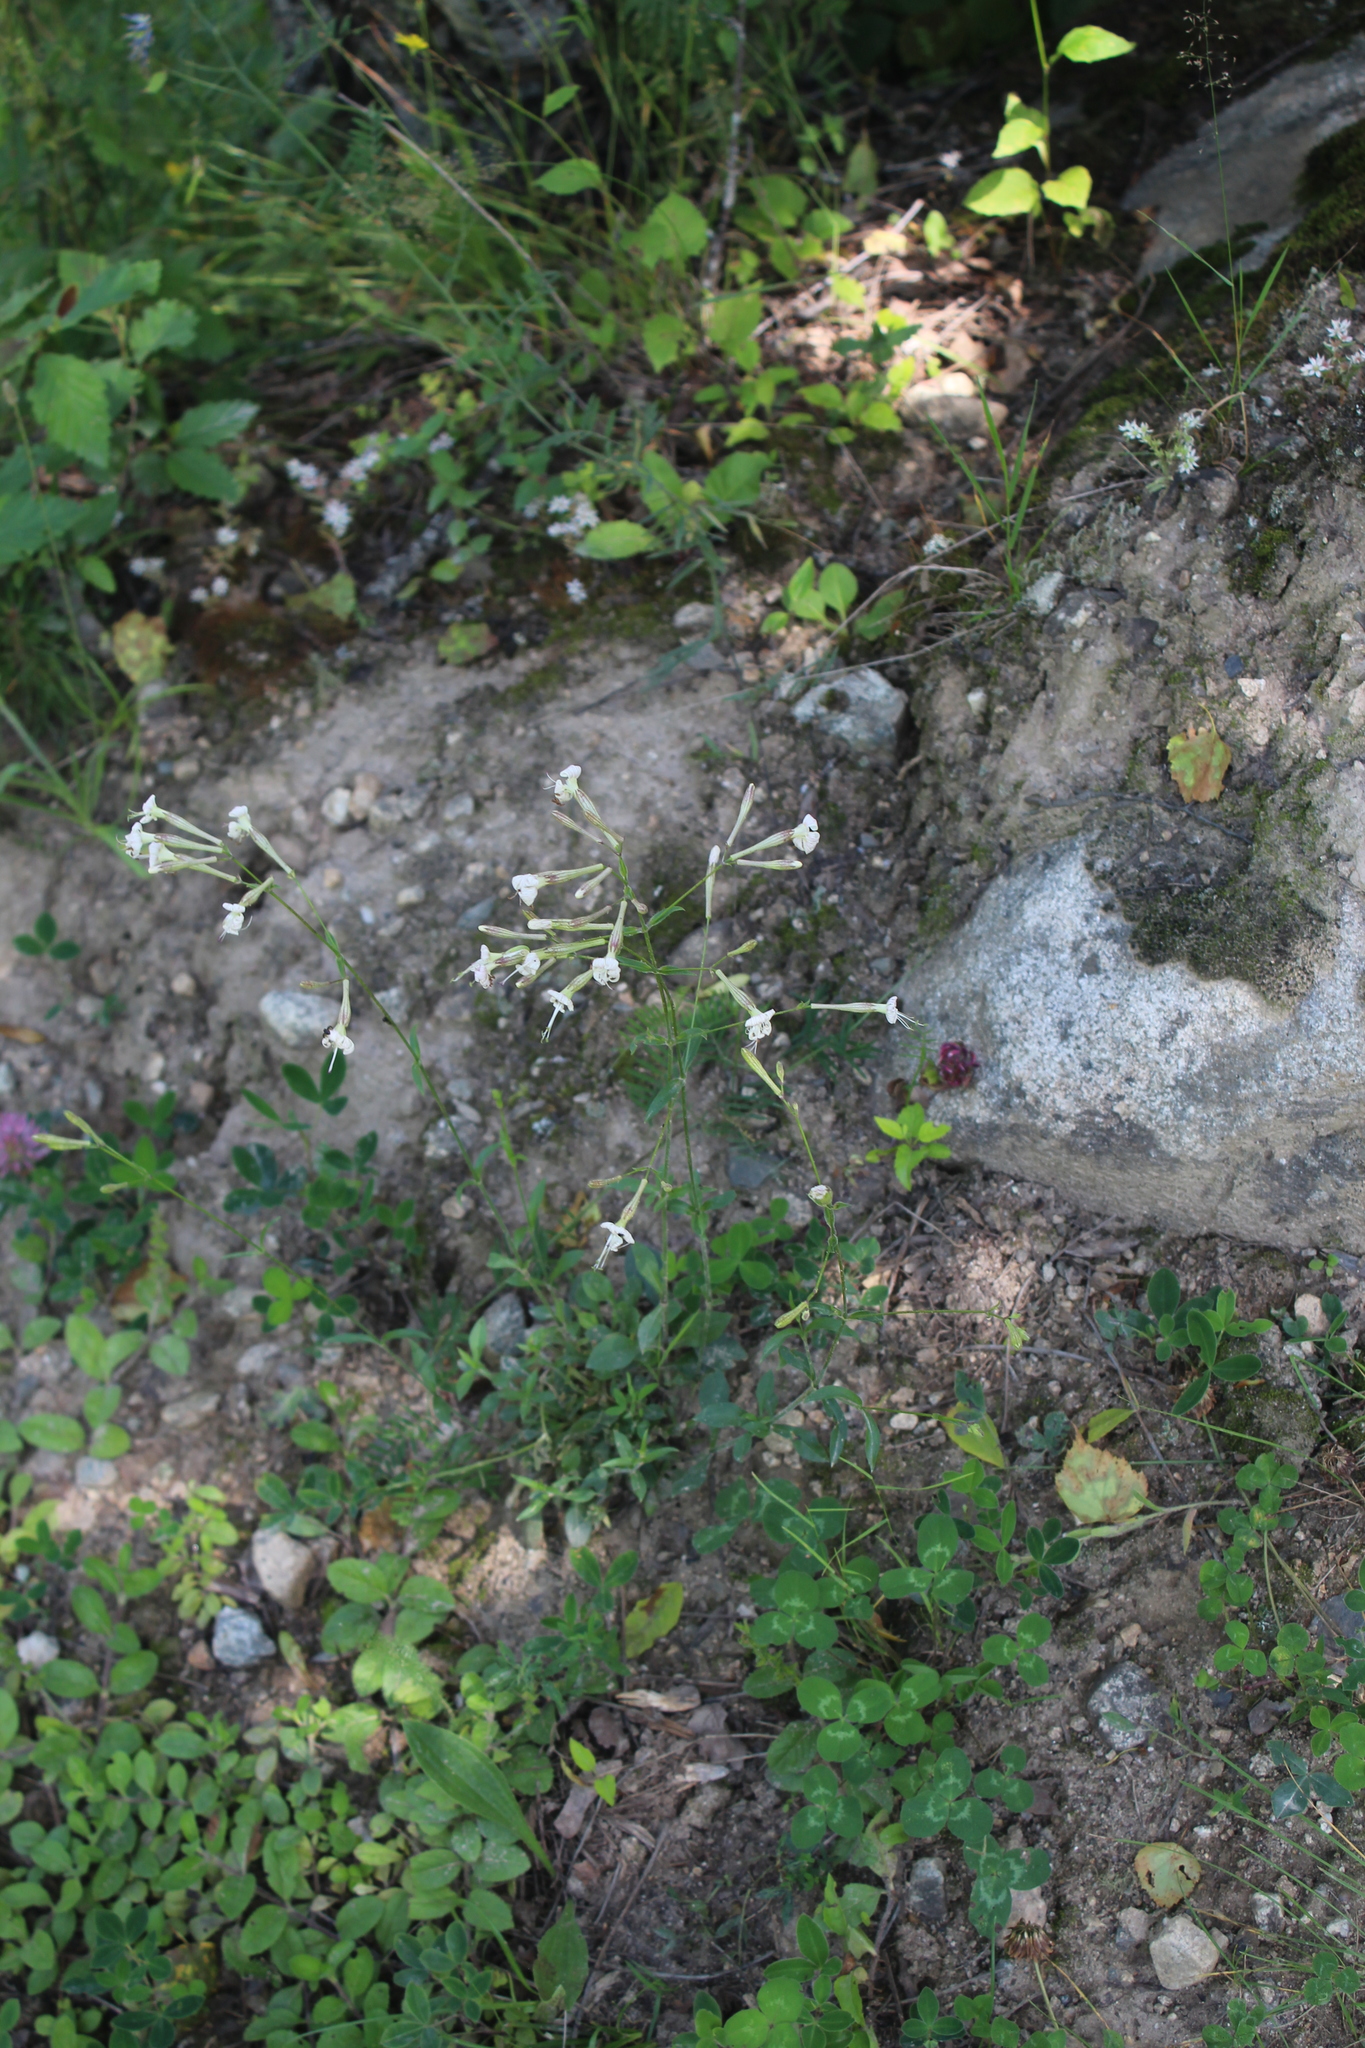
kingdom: Plantae
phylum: Tracheophyta
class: Magnoliopsida
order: Caryophyllales
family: Caryophyllaceae
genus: Silene
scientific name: Silene italica
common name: Italian catchfly
